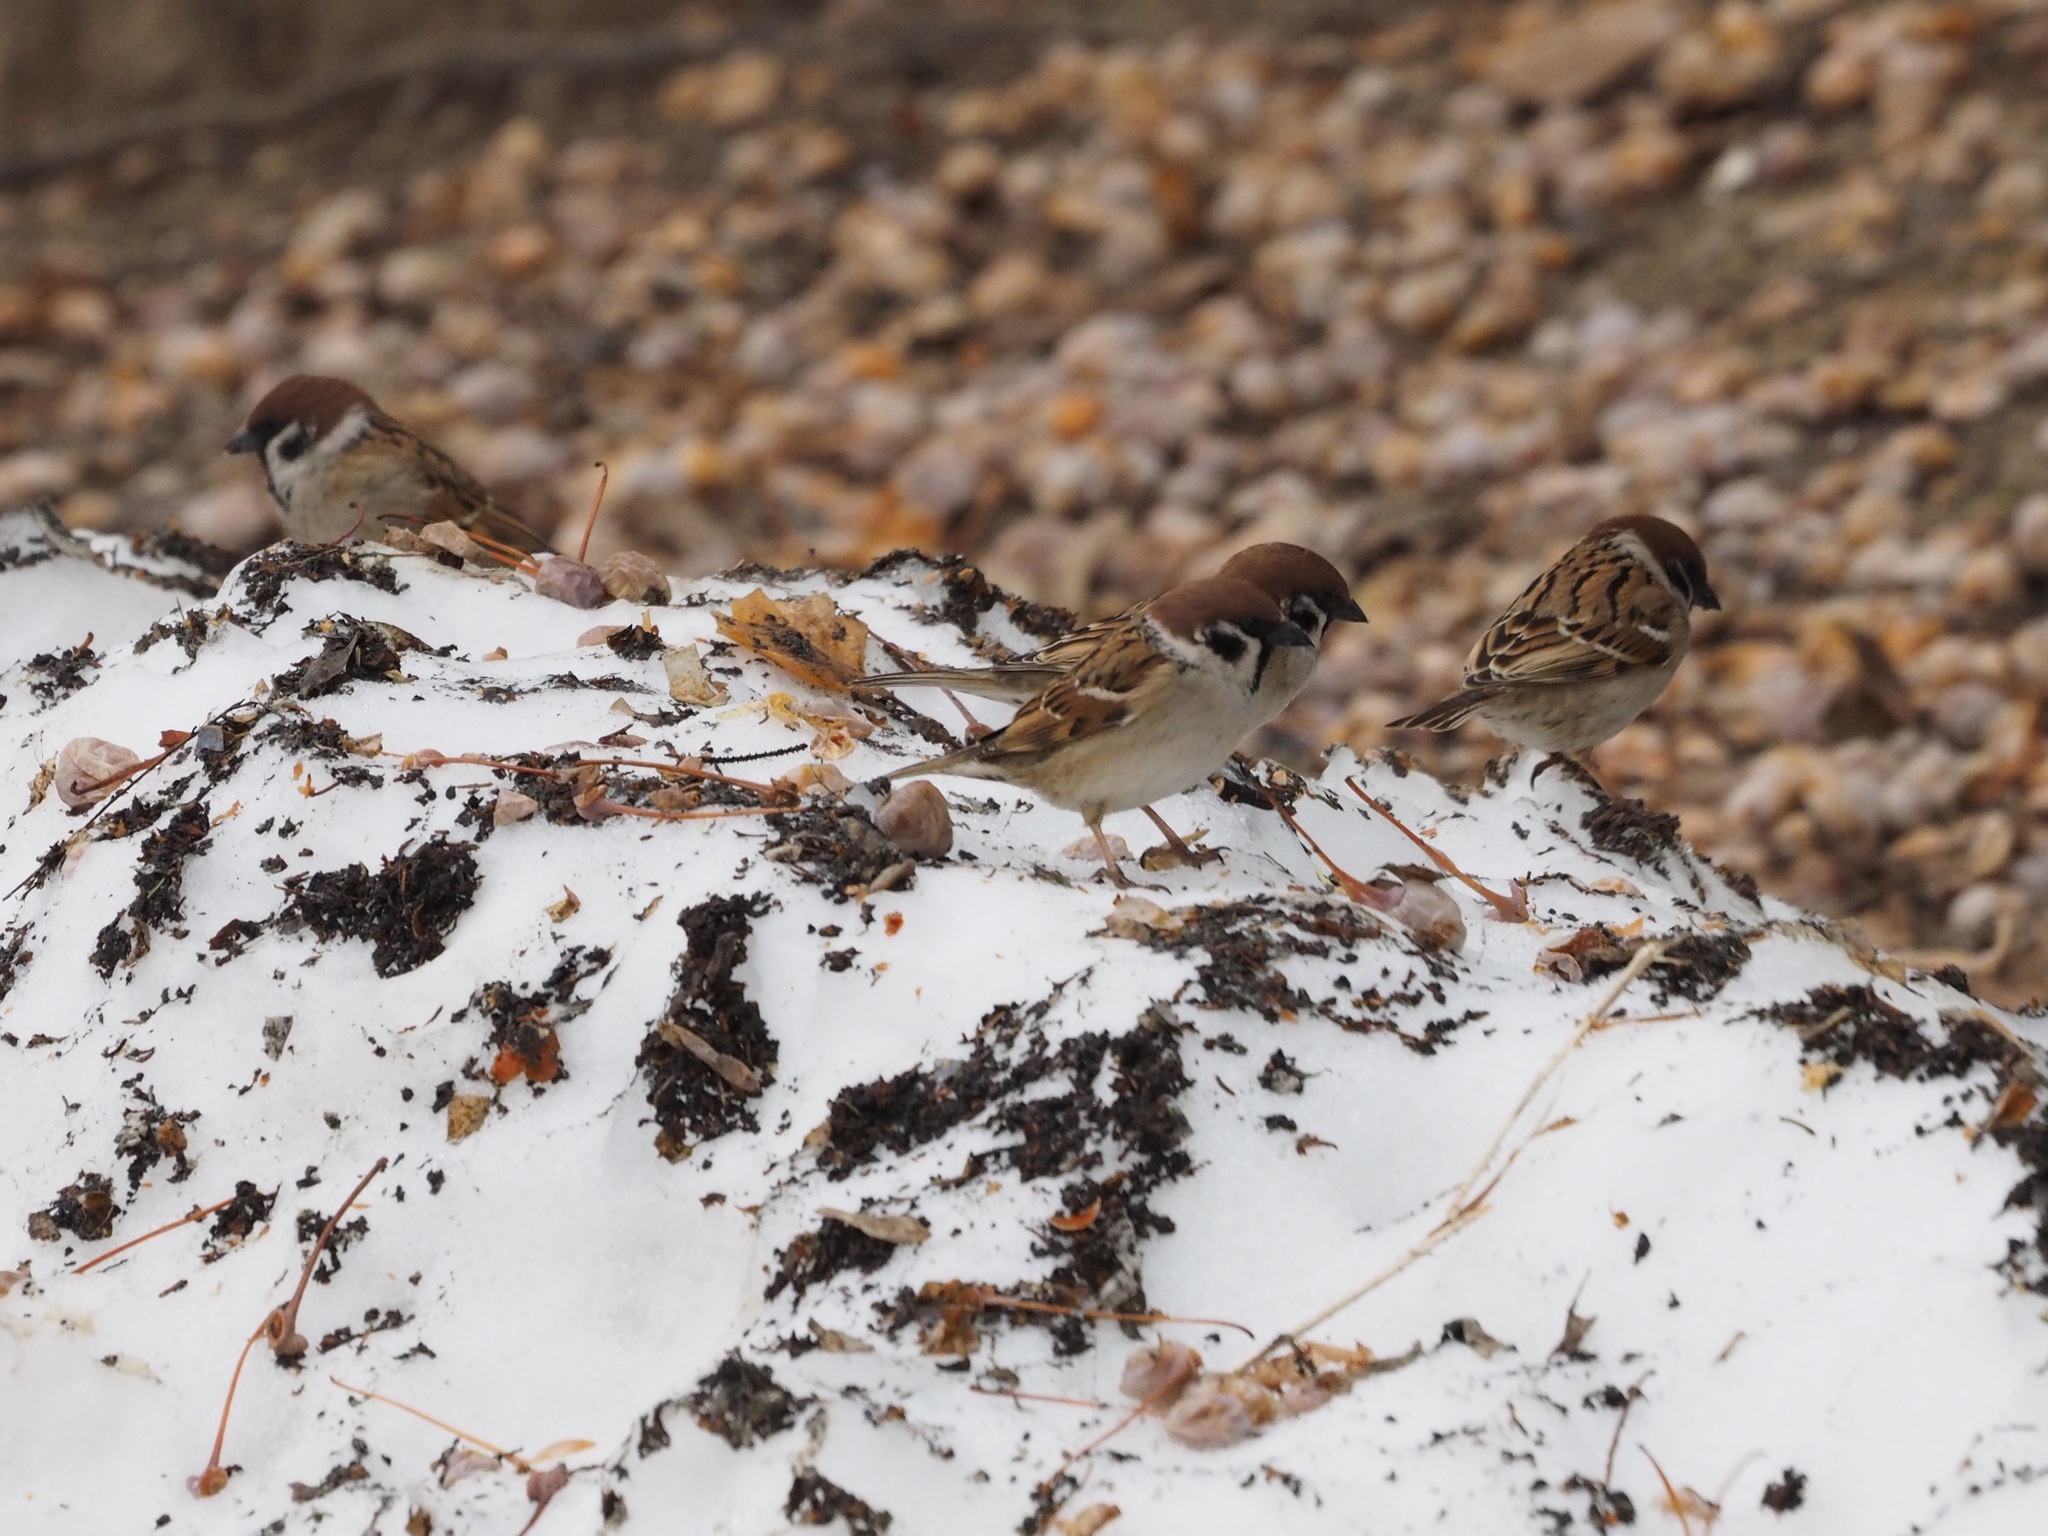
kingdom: Animalia
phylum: Chordata
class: Aves
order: Passeriformes
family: Passeridae
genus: Passer
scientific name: Passer montanus
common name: Eurasian tree sparrow
